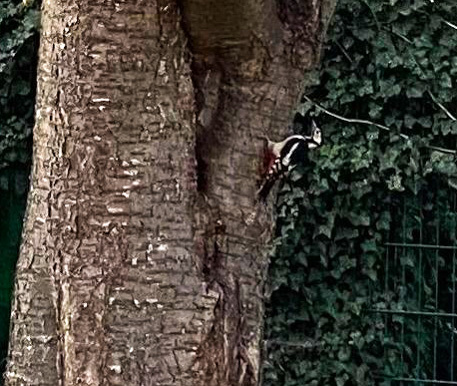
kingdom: Animalia
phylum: Chordata
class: Aves
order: Piciformes
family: Picidae
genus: Dendrocopos
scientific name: Dendrocopos major
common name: Great spotted woodpecker
